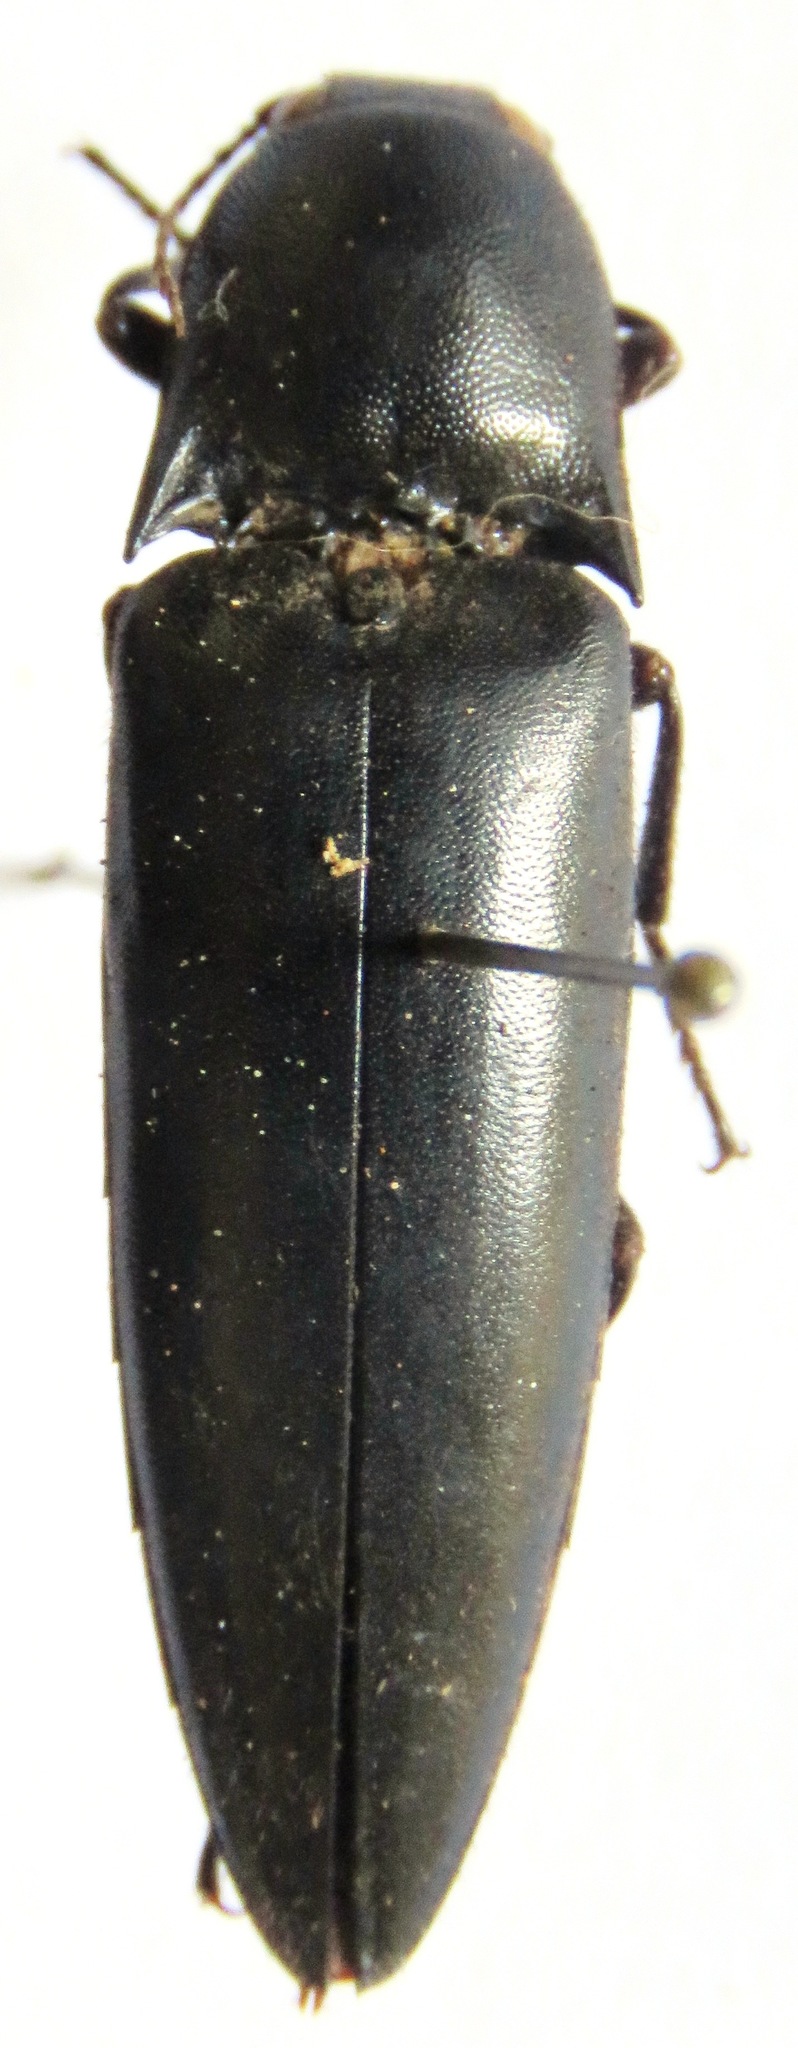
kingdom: Animalia
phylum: Arthropoda
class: Insecta
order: Coleoptera
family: Elateridae
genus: Orthostethus
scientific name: Orthostethus
